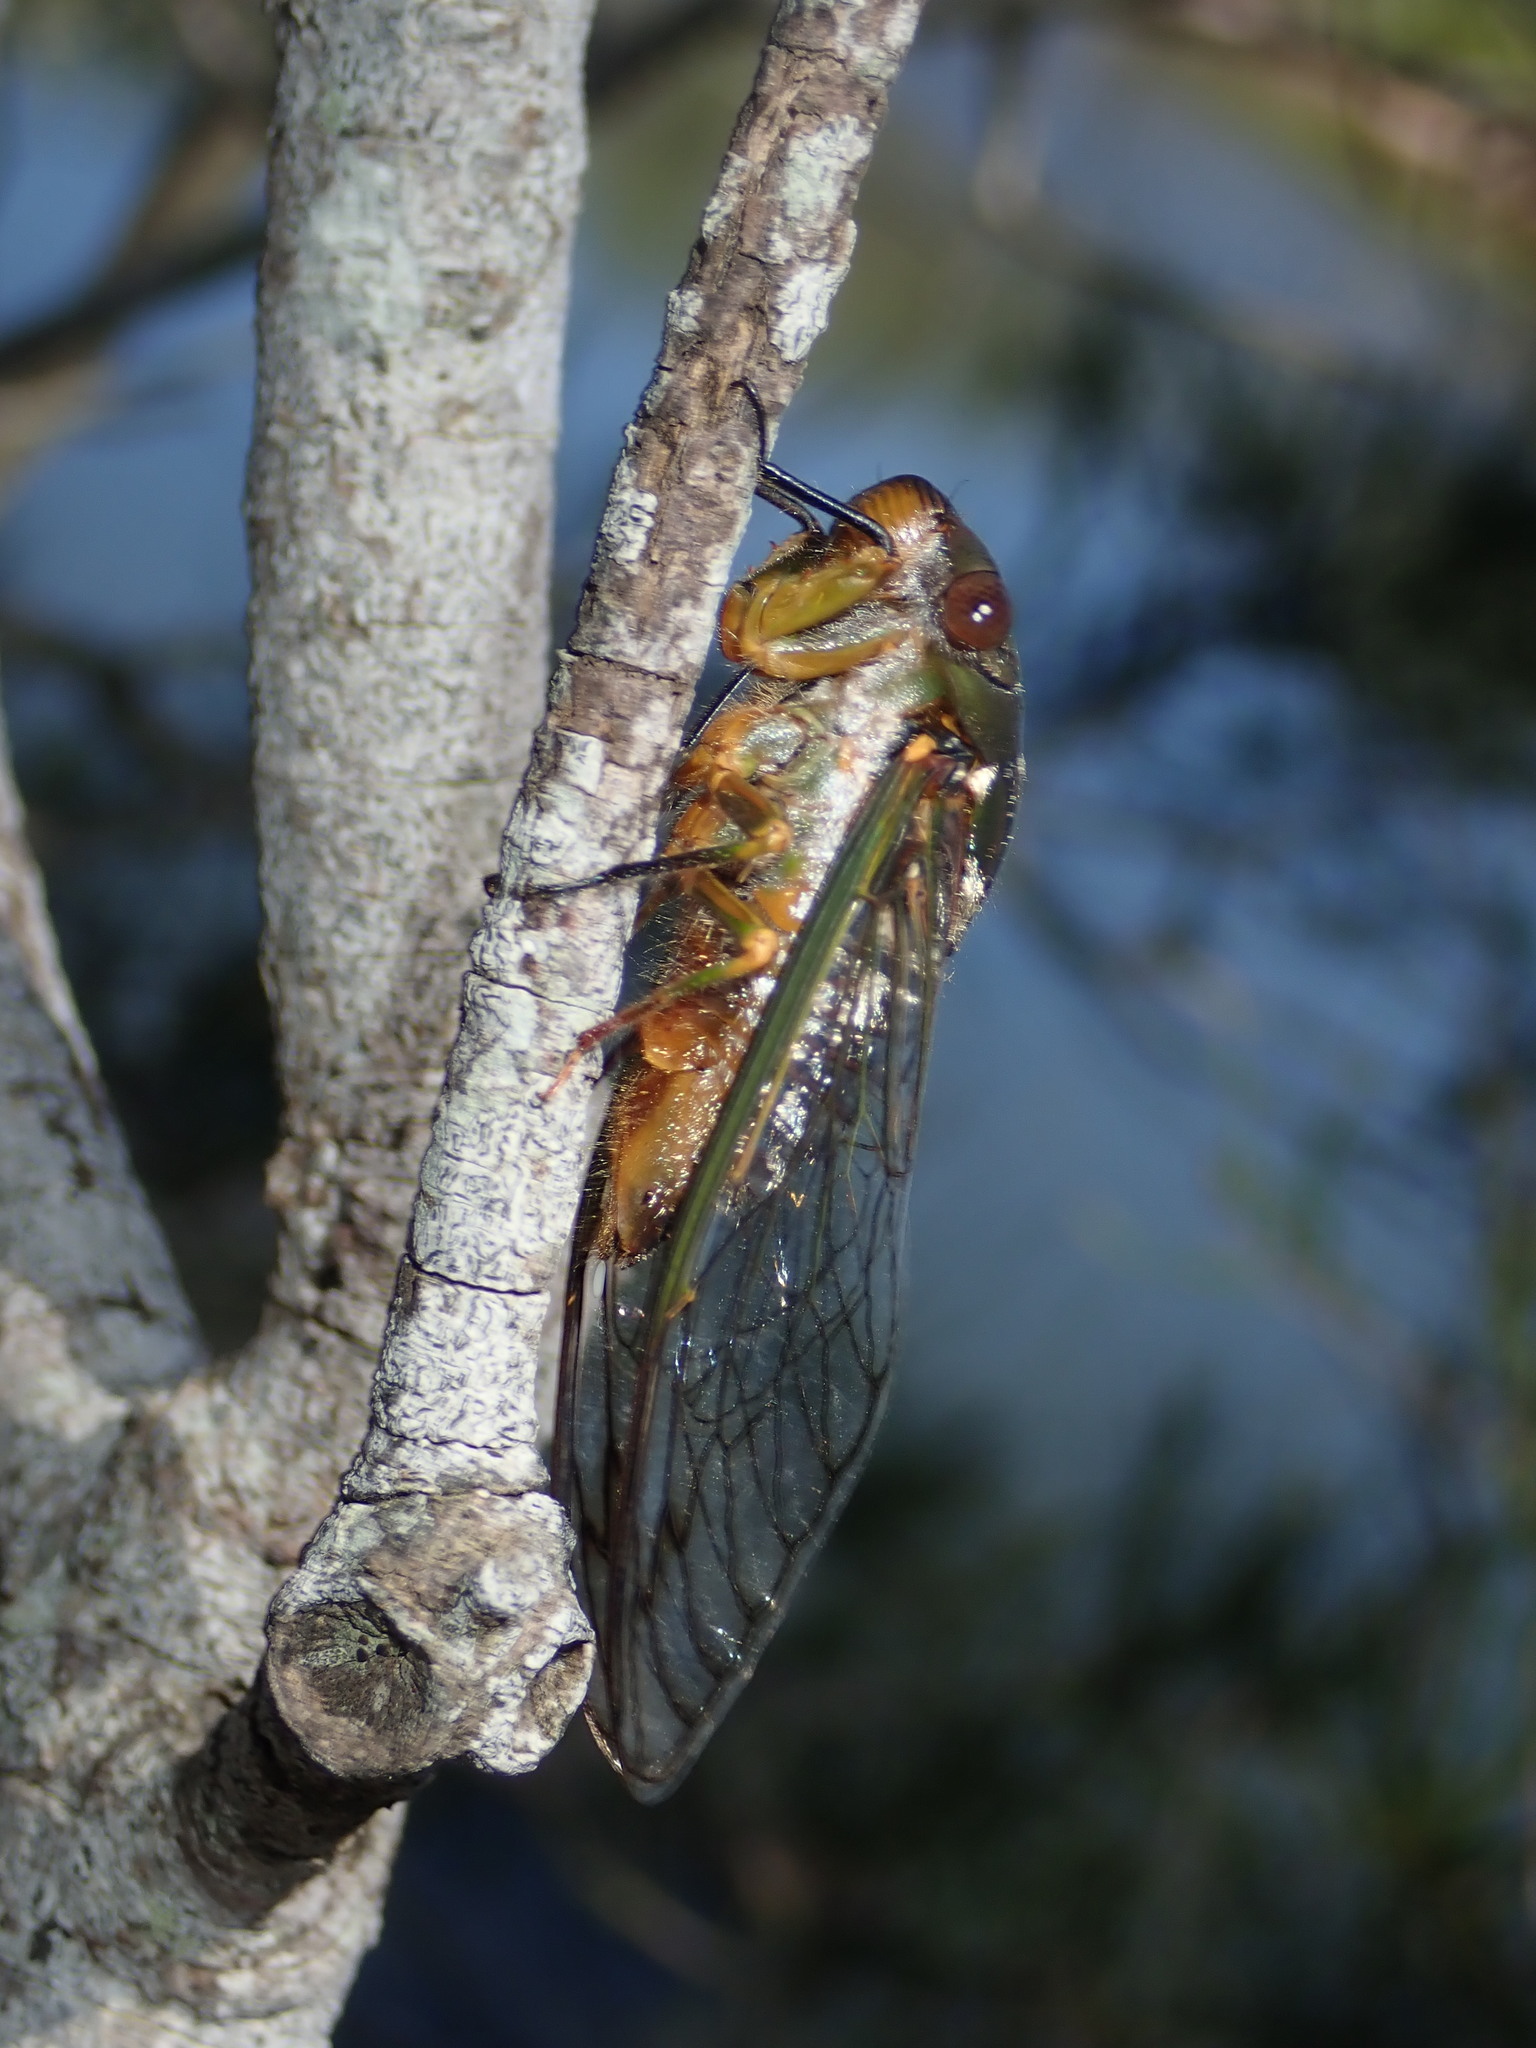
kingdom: Animalia
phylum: Arthropoda
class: Insecta
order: Hemiptera
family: Cicadidae
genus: Psaltoda
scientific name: Psaltoda plaga
